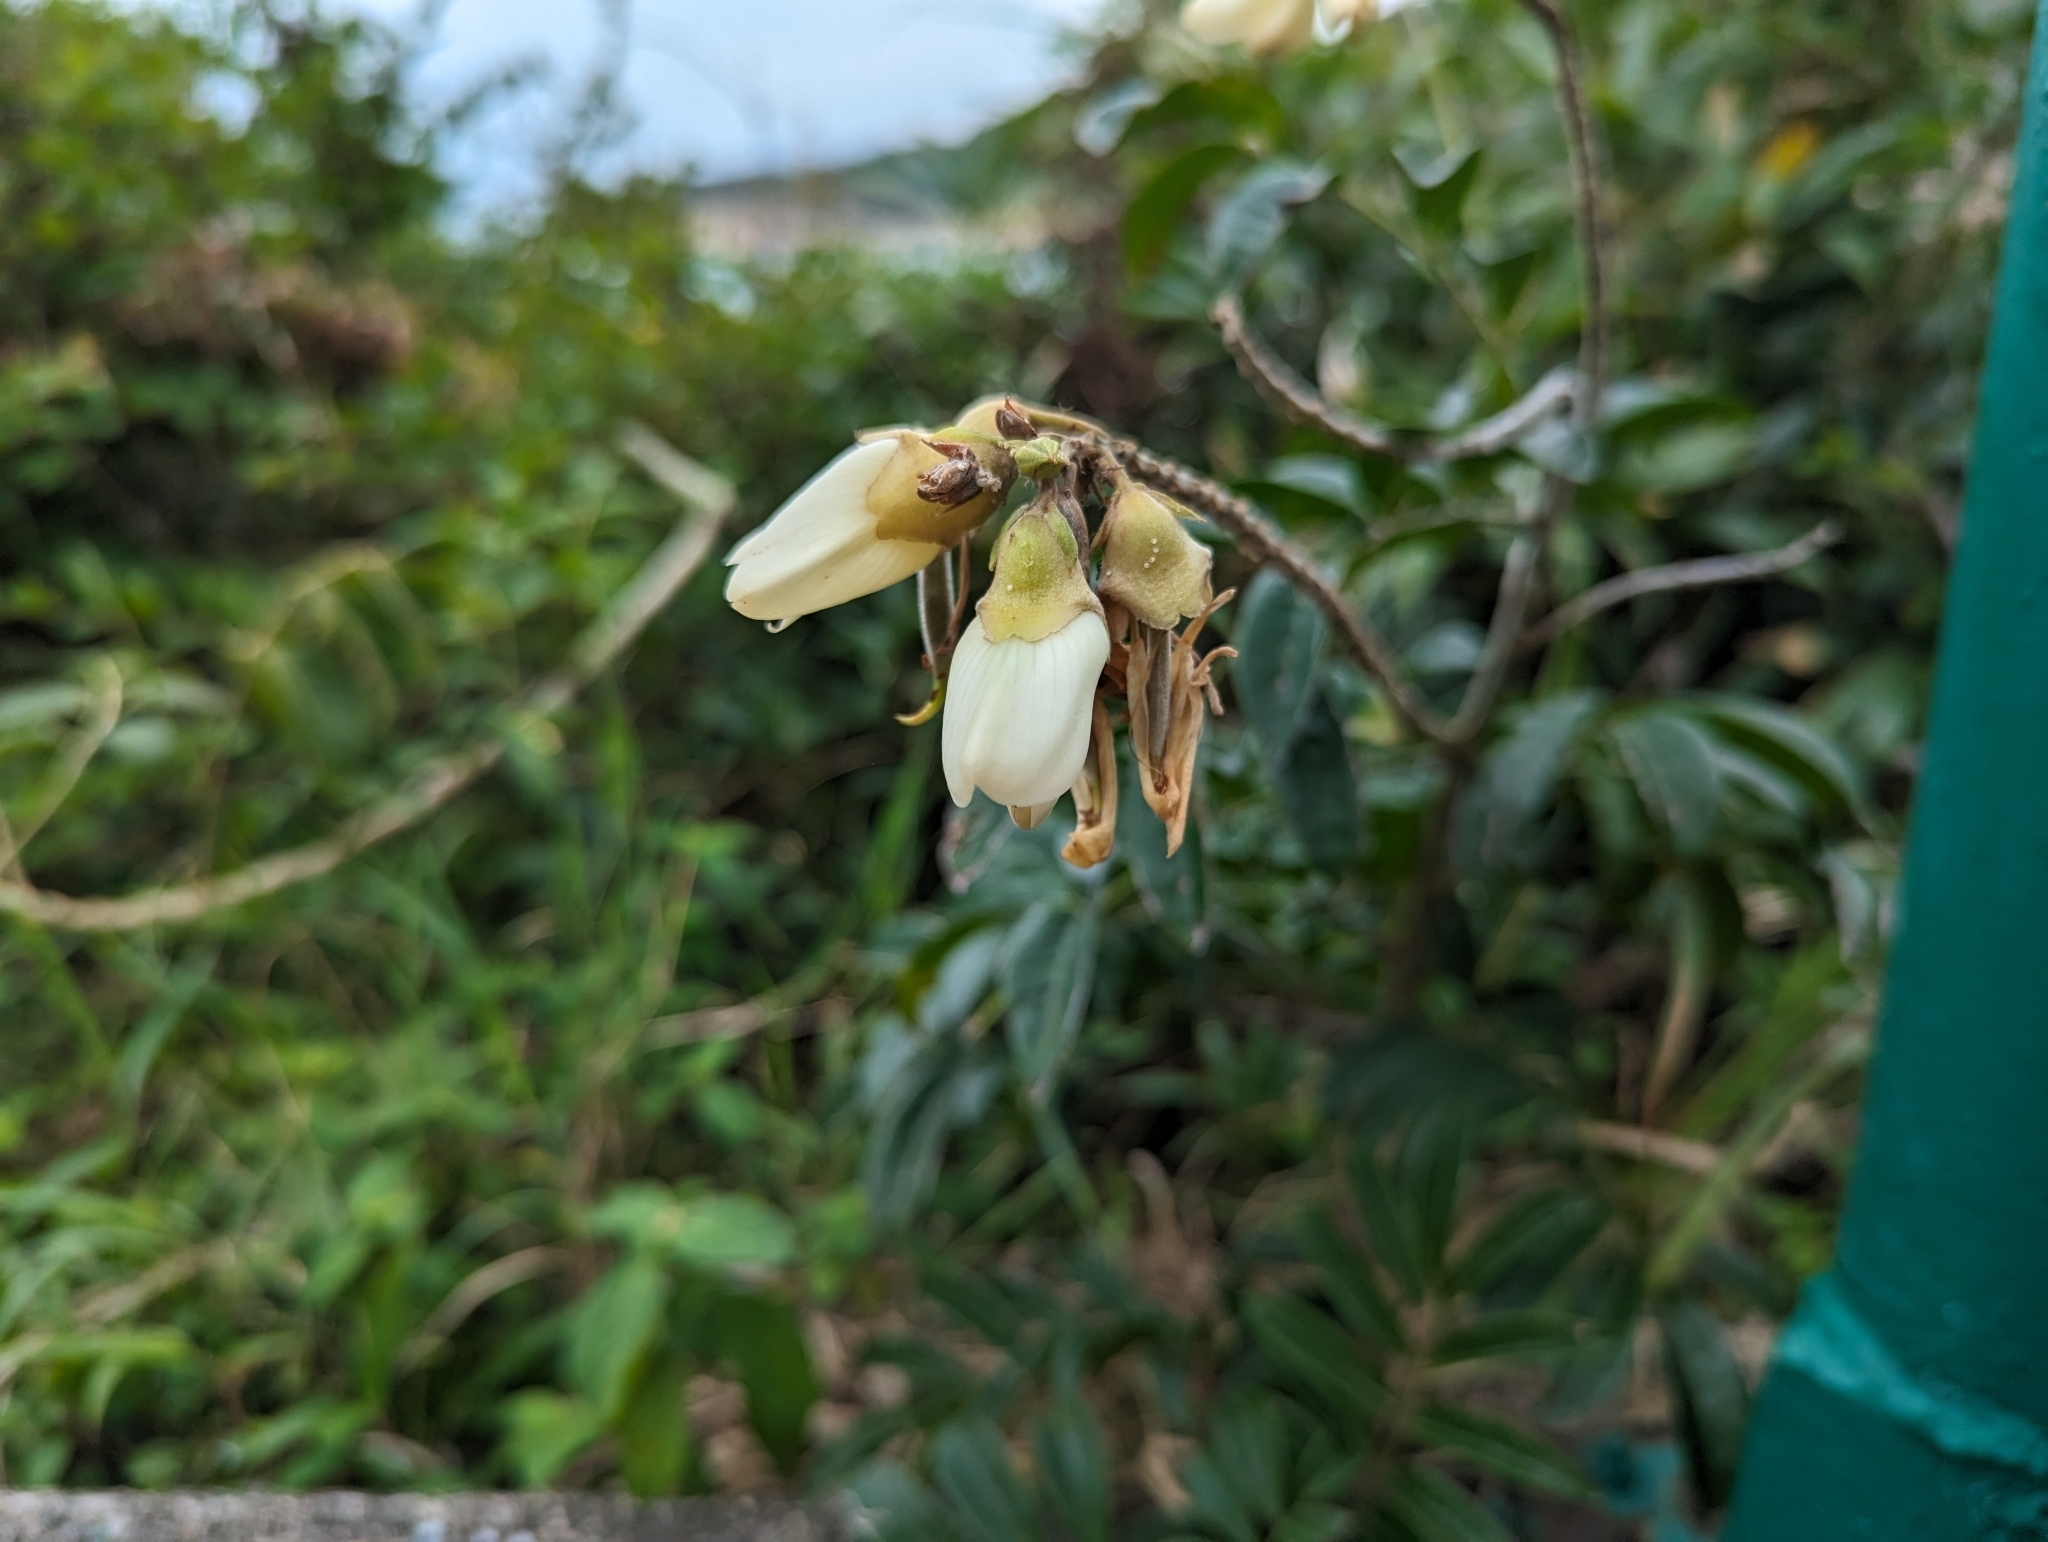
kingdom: Plantae
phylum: Tracheophyta
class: Magnoliopsida
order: Fabales
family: Fabaceae
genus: Nanhaia
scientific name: Nanhaia speciosa
